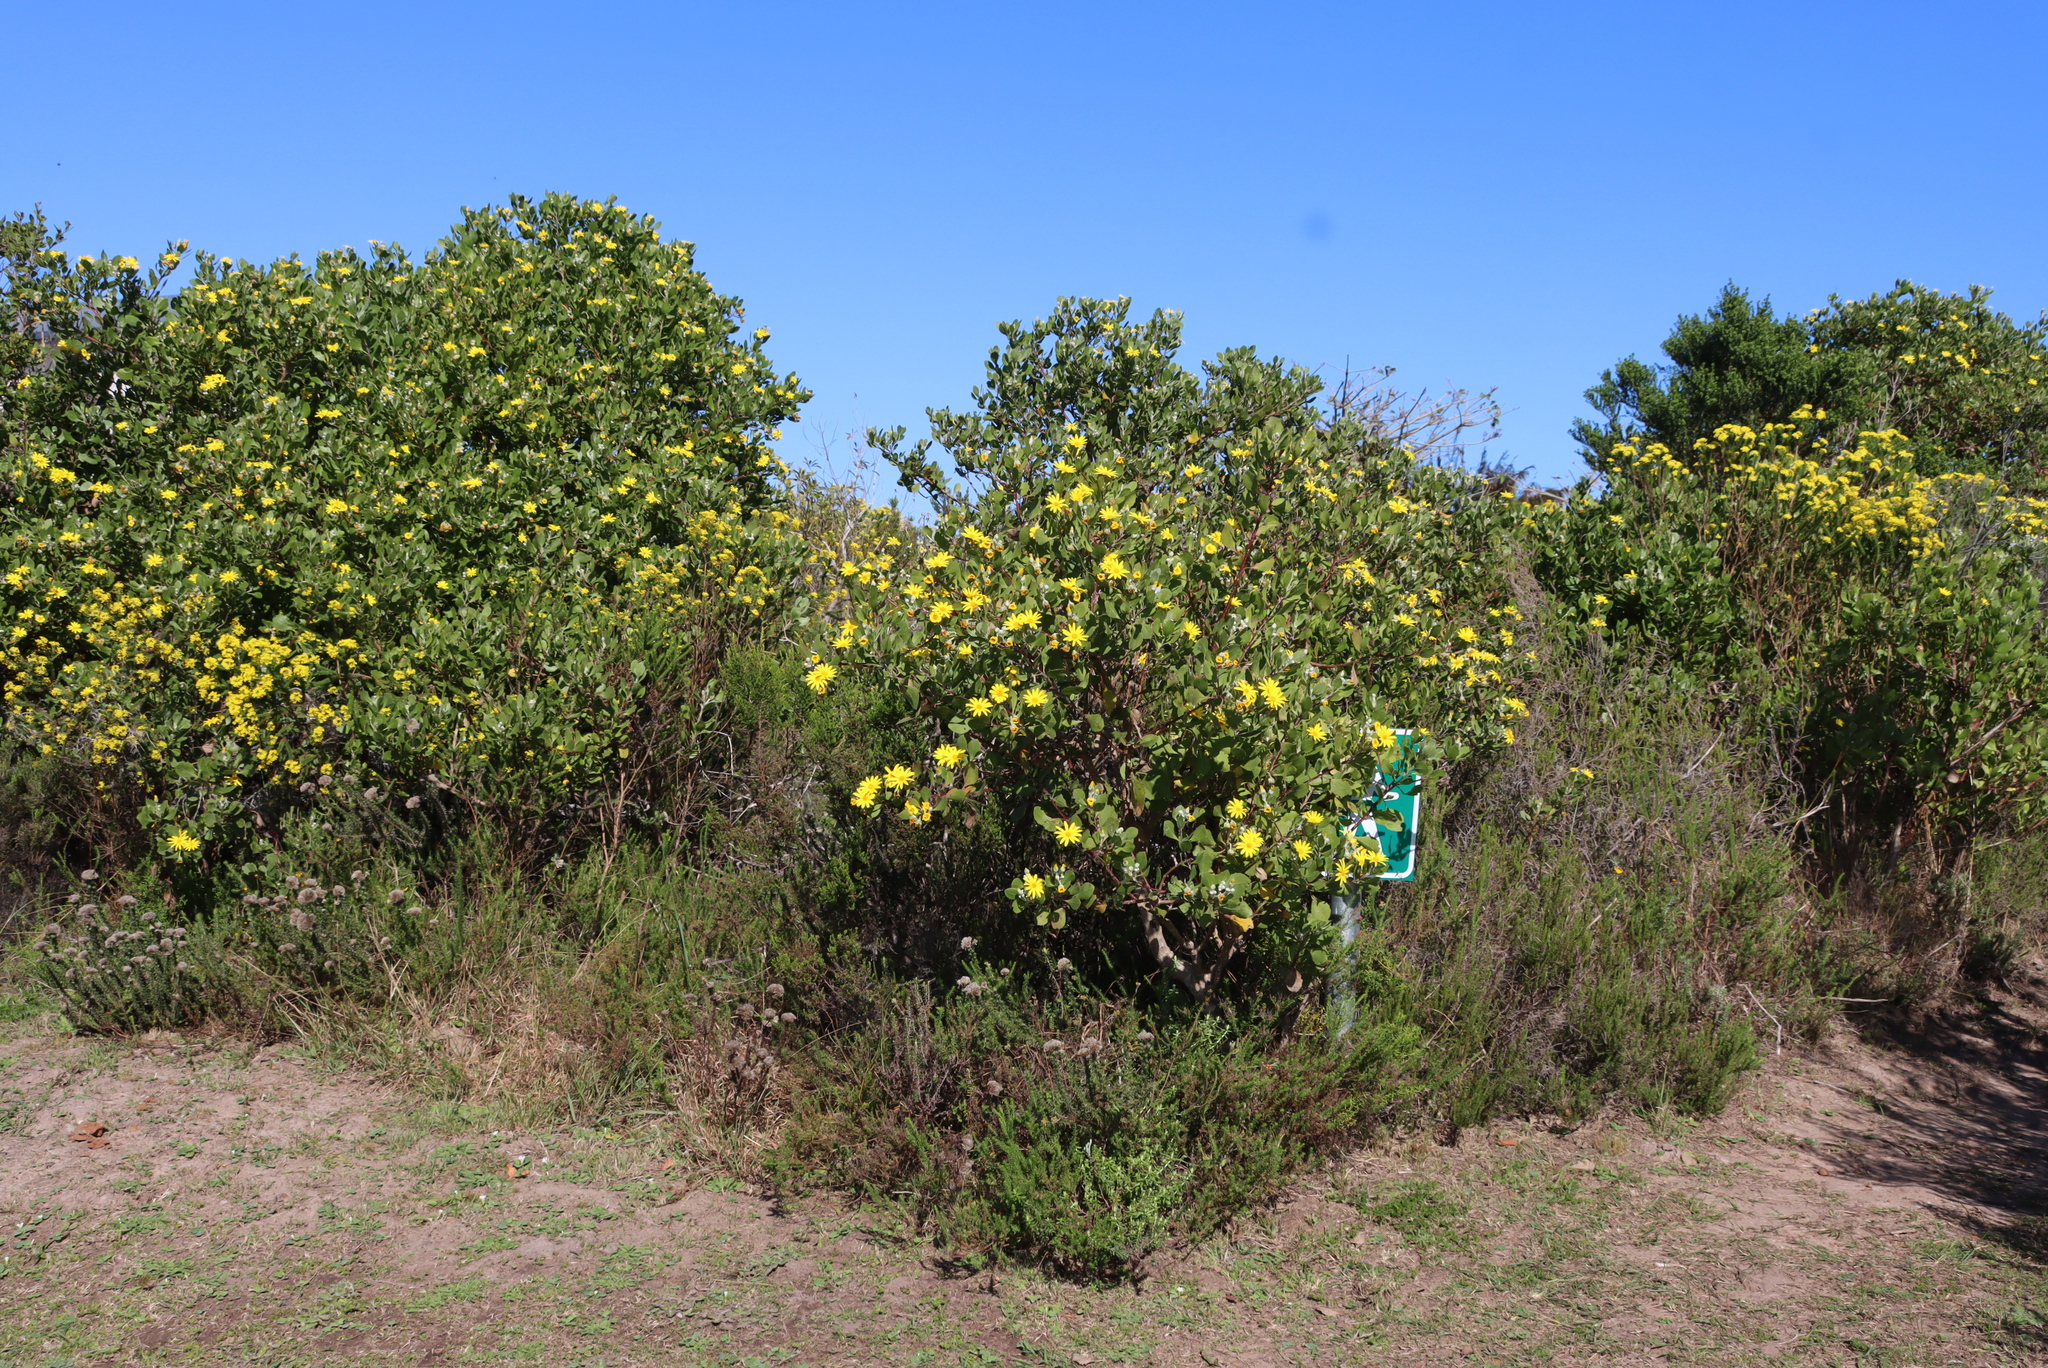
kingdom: Plantae
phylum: Tracheophyta
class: Magnoliopsida
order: Asterales
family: Asteraceae
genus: Osteospermum
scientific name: Osteospermum moniliferum
